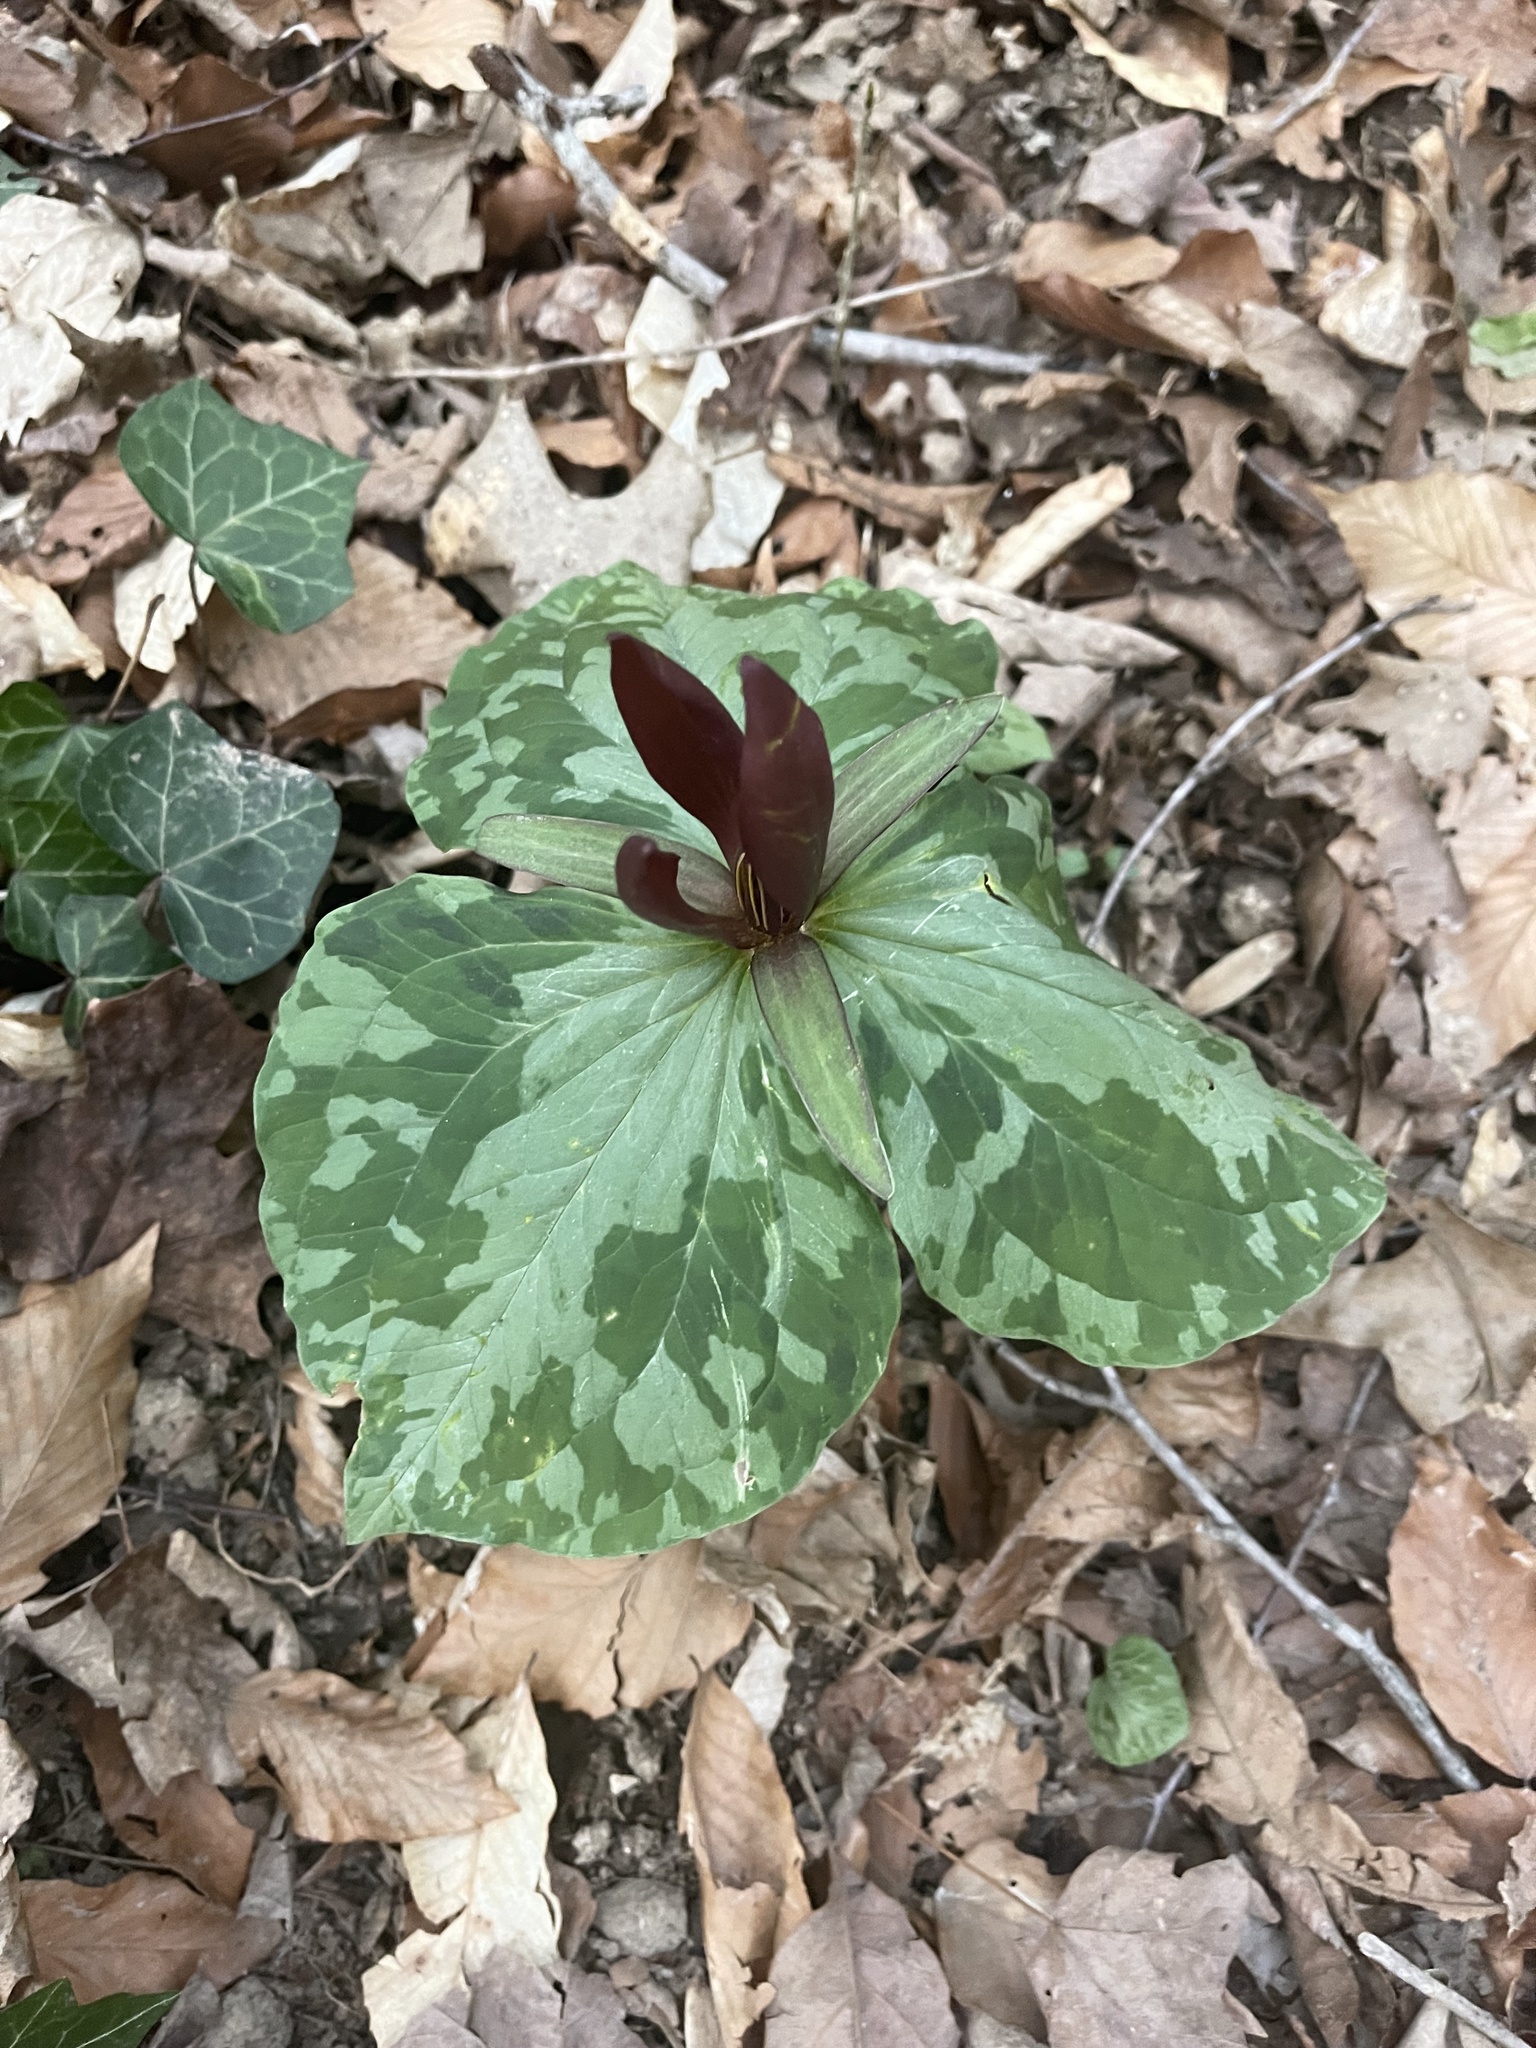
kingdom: Plantae
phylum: Tracheophyta
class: Liliopsida
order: Liliales
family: Melanthiaceae
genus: Trillium
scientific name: Trillium cuneatum
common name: Cuneate trillium
